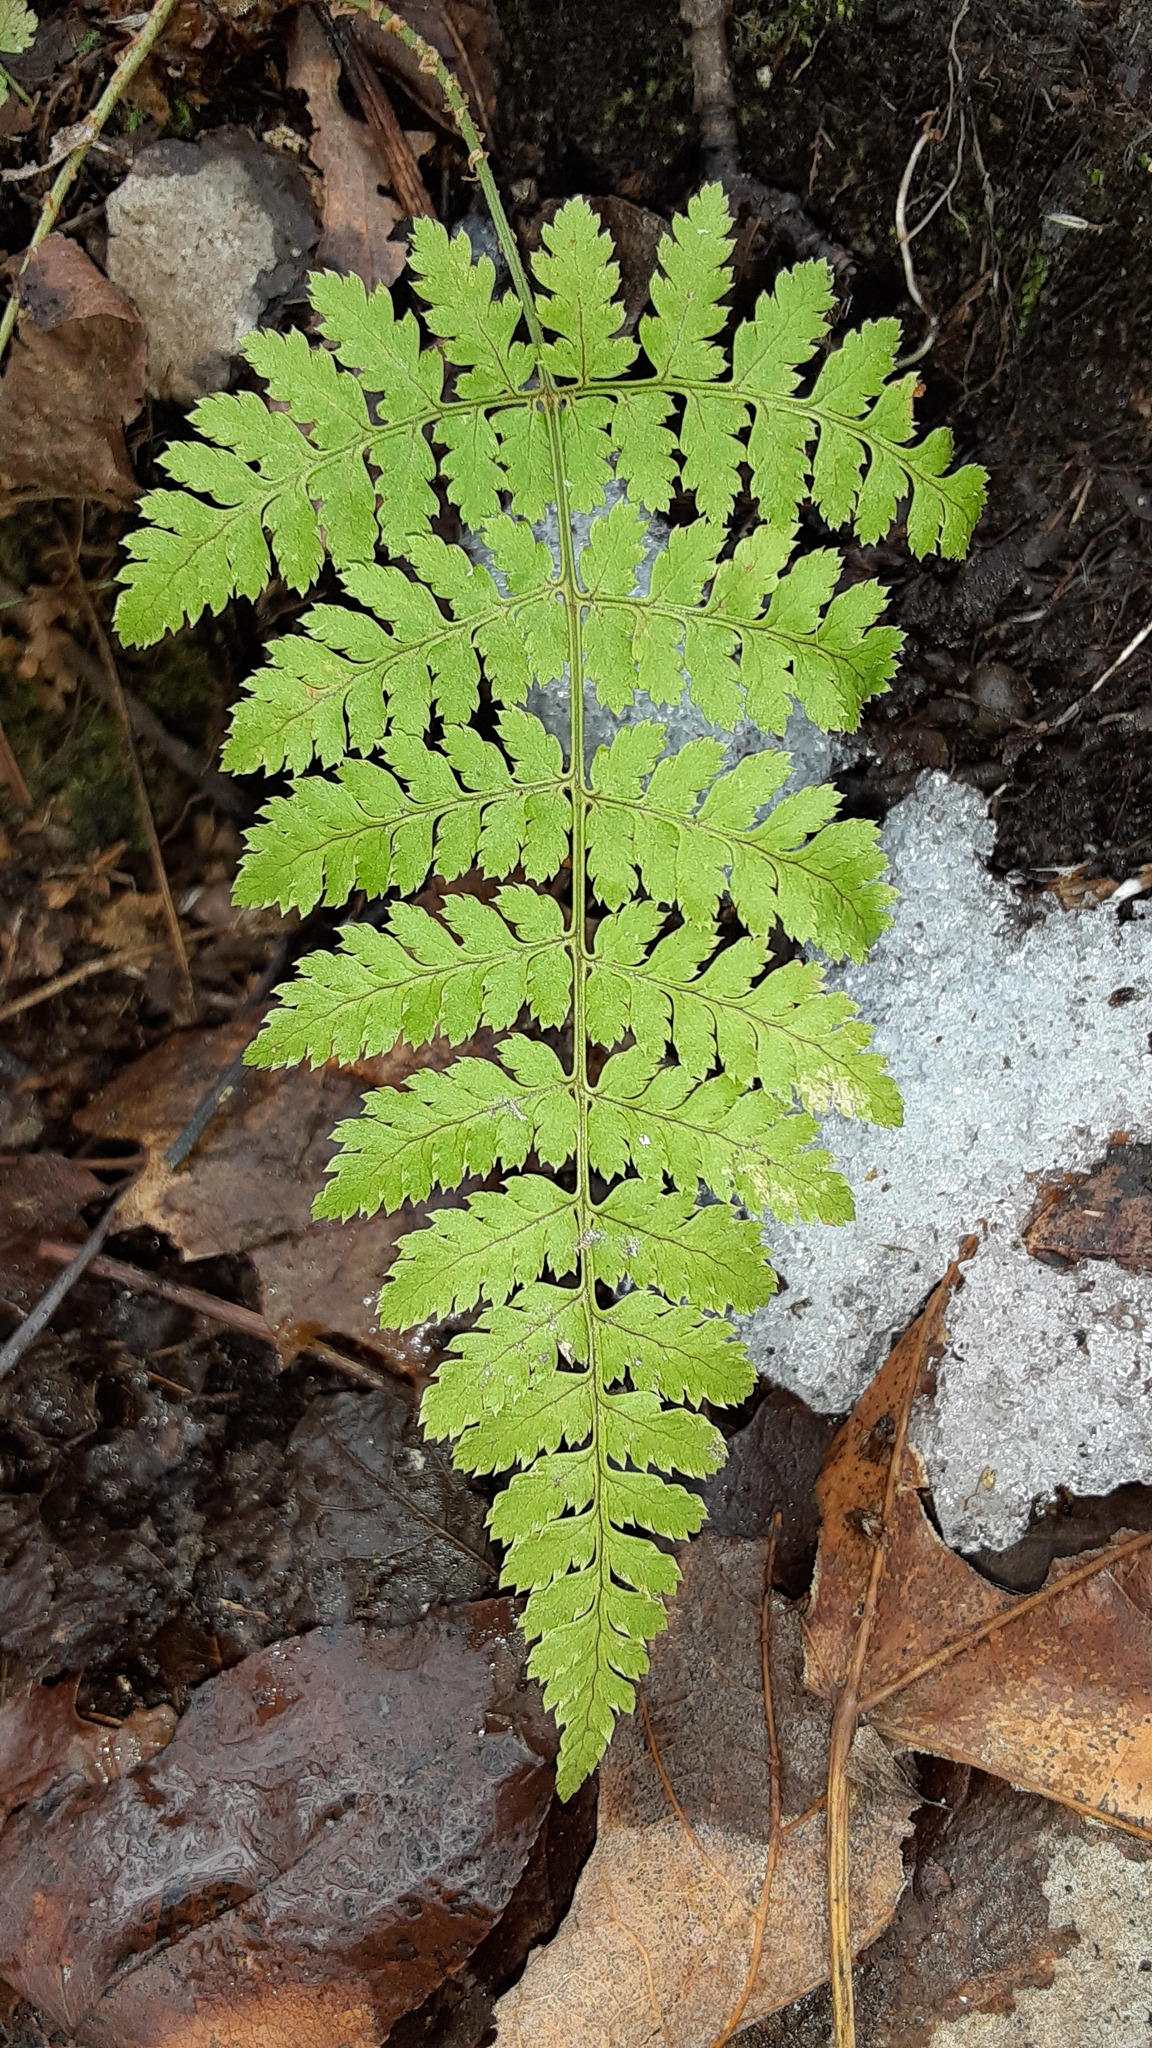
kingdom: Plantae
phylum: Tracheophyta
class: Polypodiopsida
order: Polypodiales
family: Dryopteridaceae
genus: Dryopteris
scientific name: Dryopteris intermedia
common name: Evergreen wood fern
